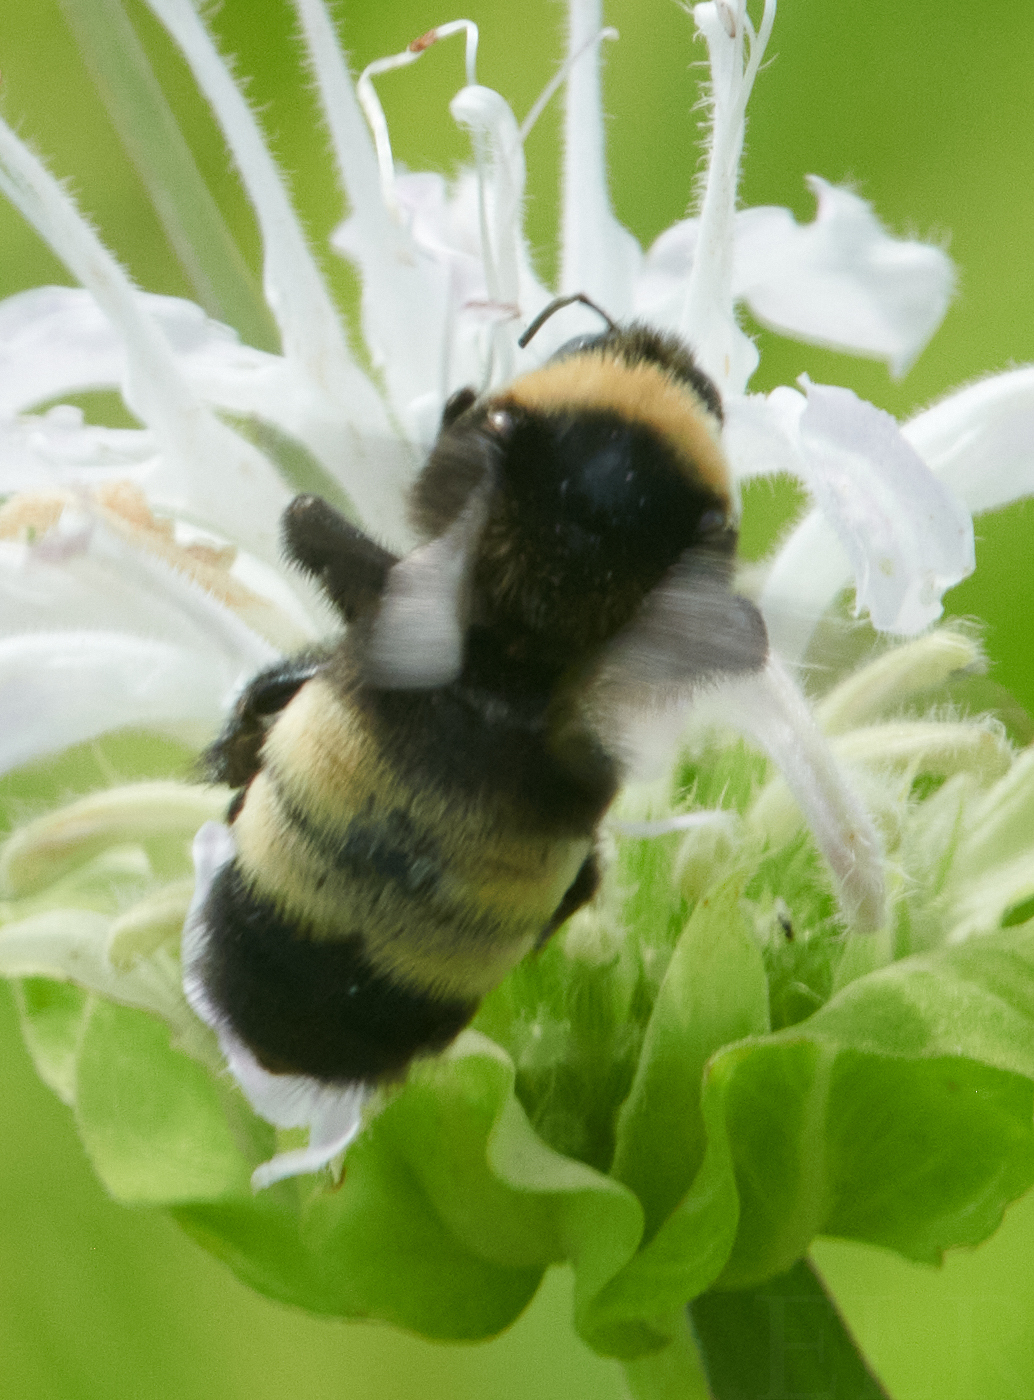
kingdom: Animalia
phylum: Arthropoda
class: Insecta
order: Hymenoptera
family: Apidae
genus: Bombus
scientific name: Bombus auricomus
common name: Black and gold bumble bee
